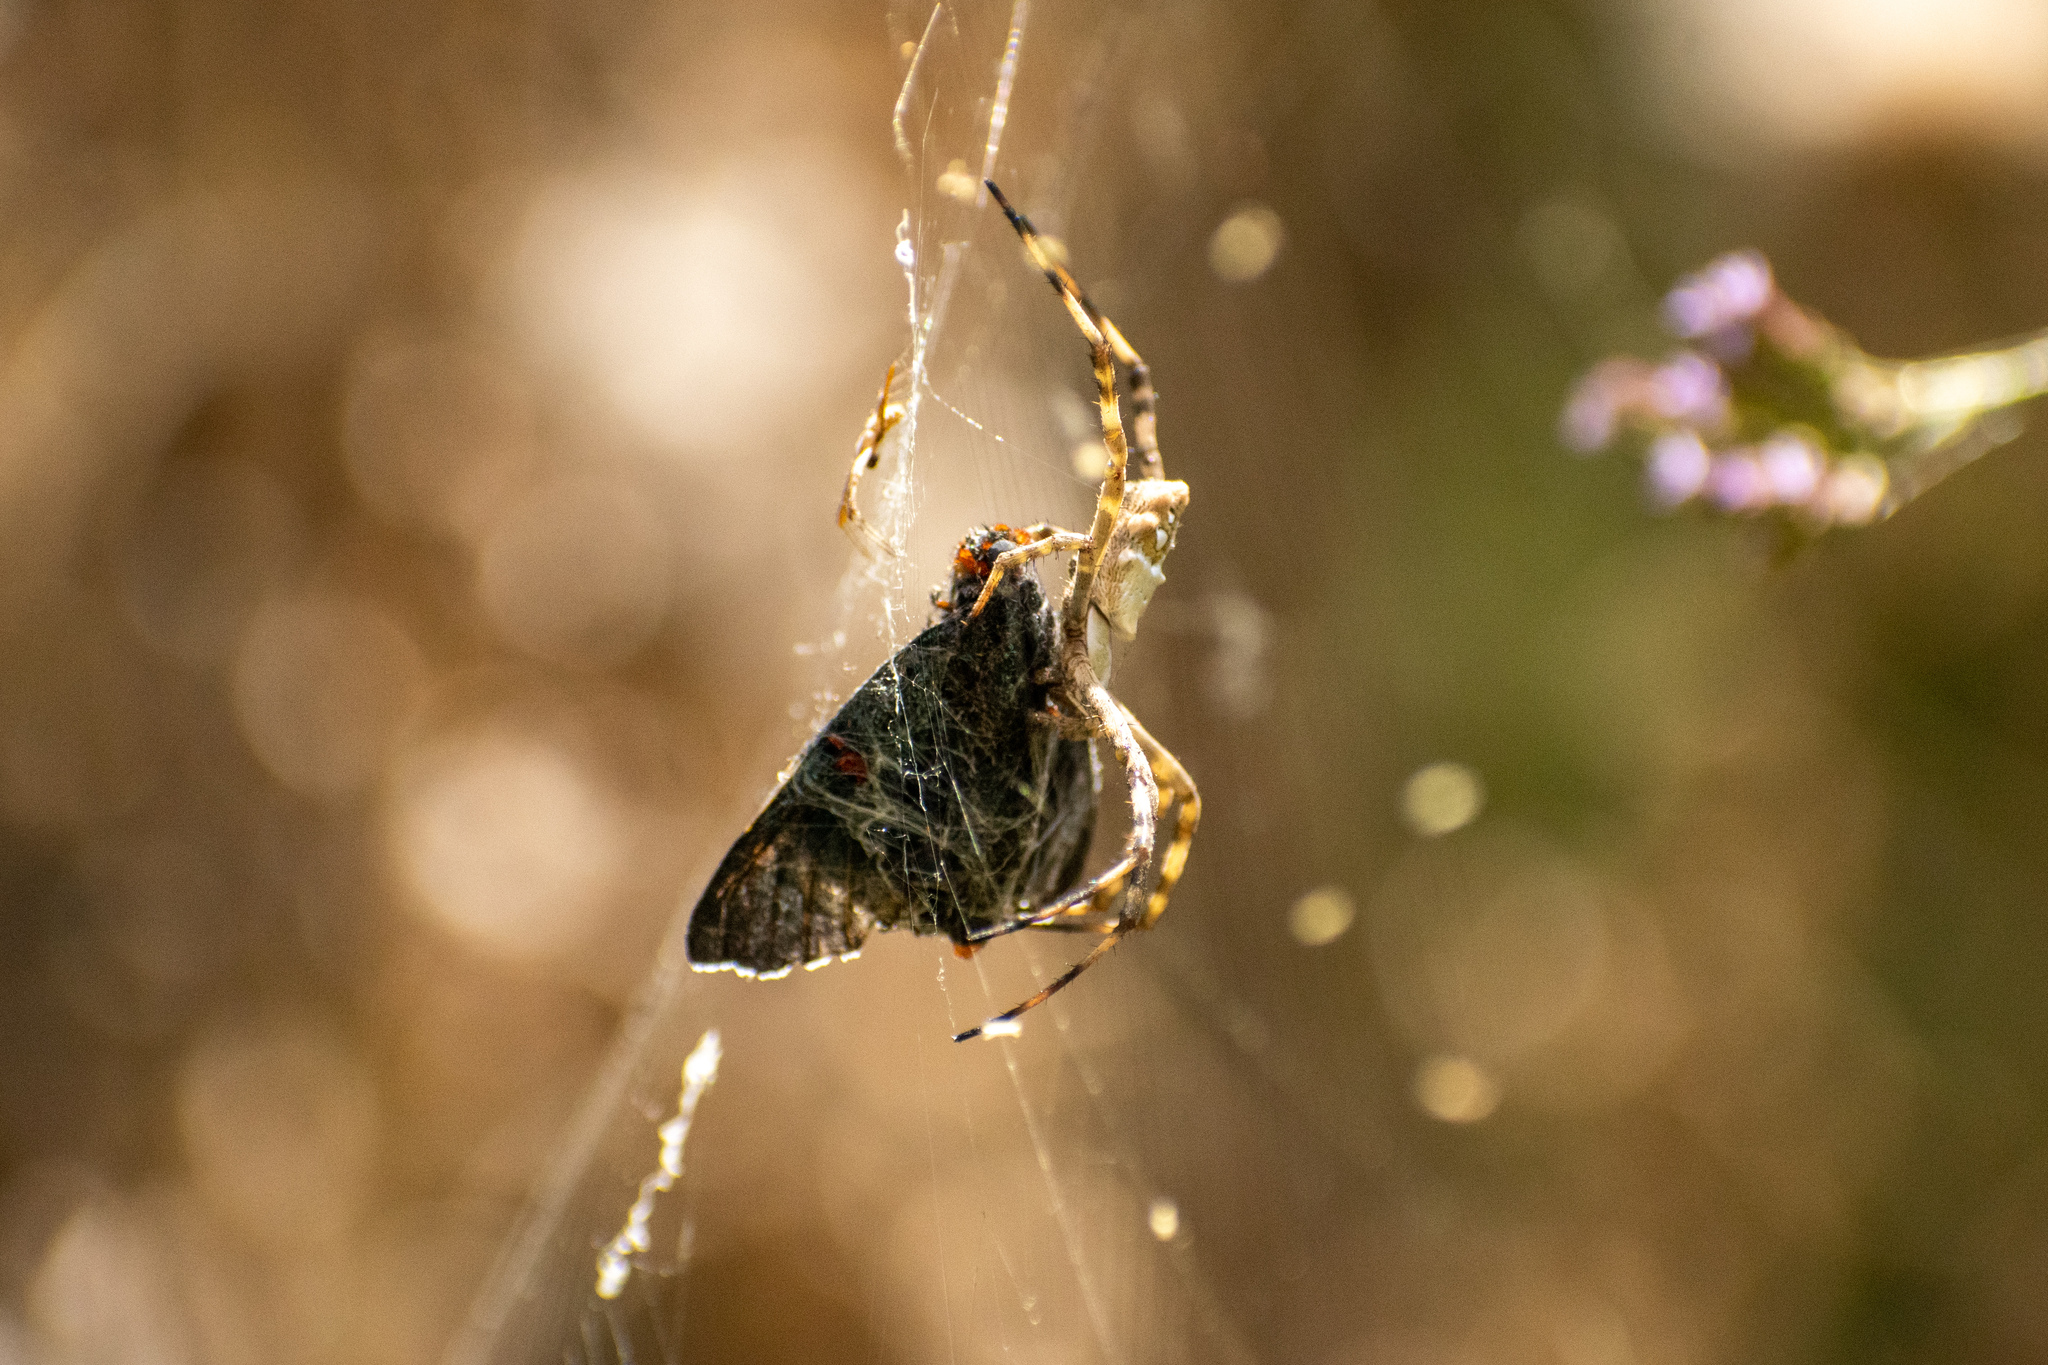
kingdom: Animalia
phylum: Arthropoda
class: Insecta
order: Lepidoptera
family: Hesperiidae
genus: Phocides
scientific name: Phocides polybius
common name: Guava skipper
